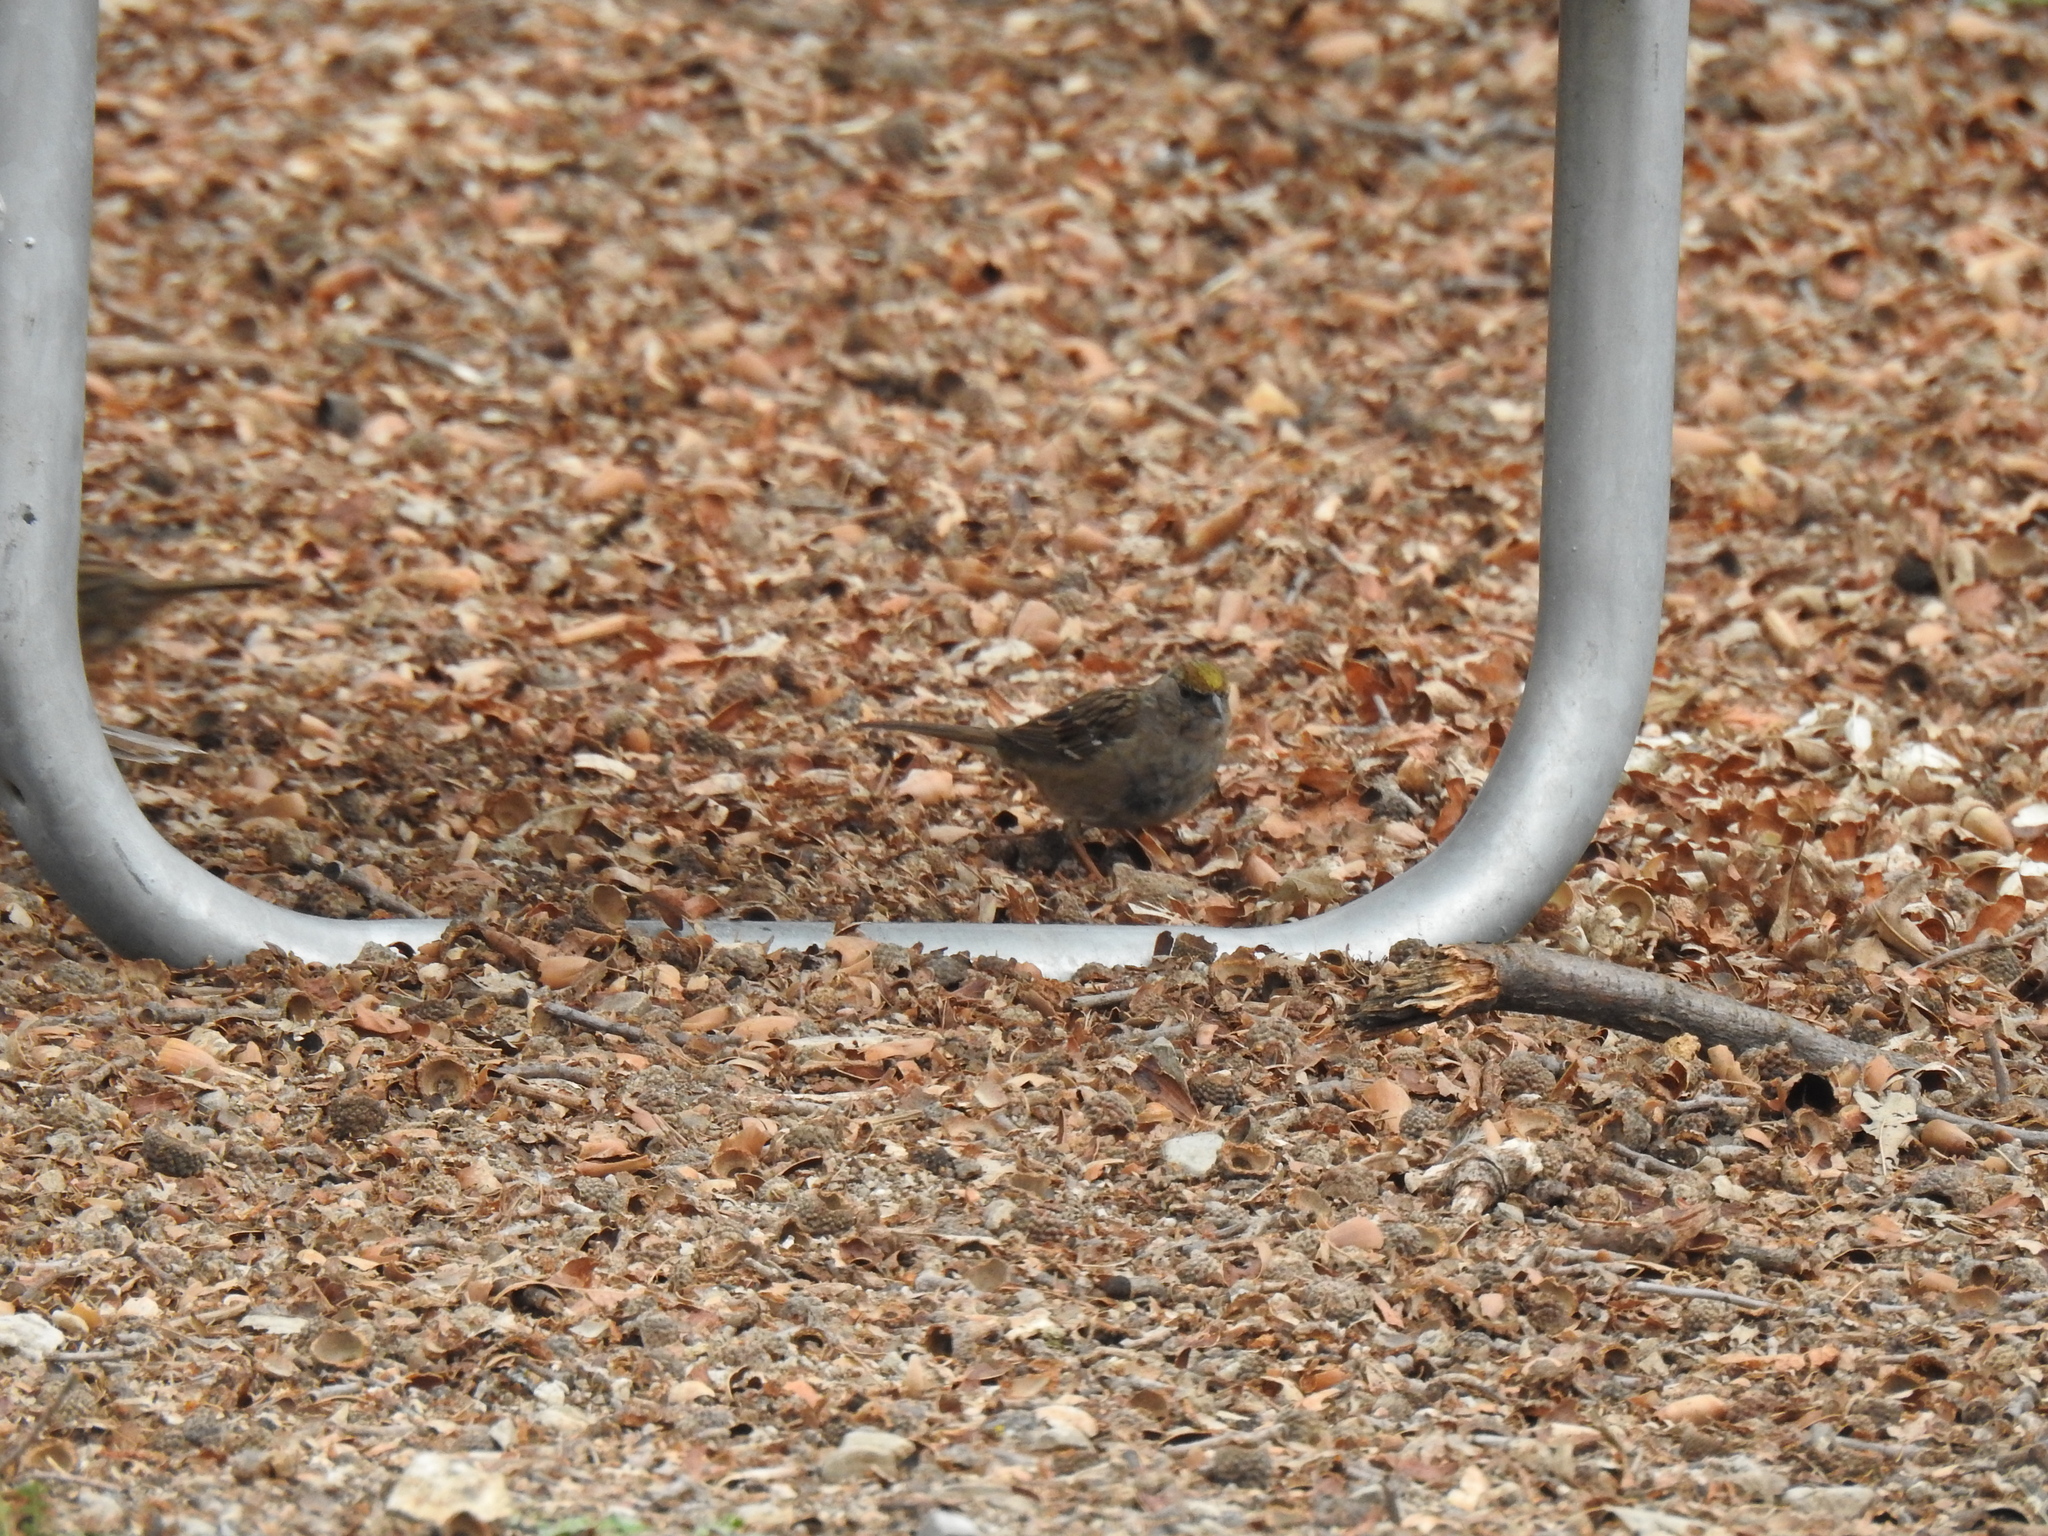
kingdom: Animalia
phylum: Chordata
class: Aves
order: Passeriformes
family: Passerellidae
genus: Zonotrichia
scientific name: Zonotrichia atricapilla
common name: Golden-crowned sparrow
